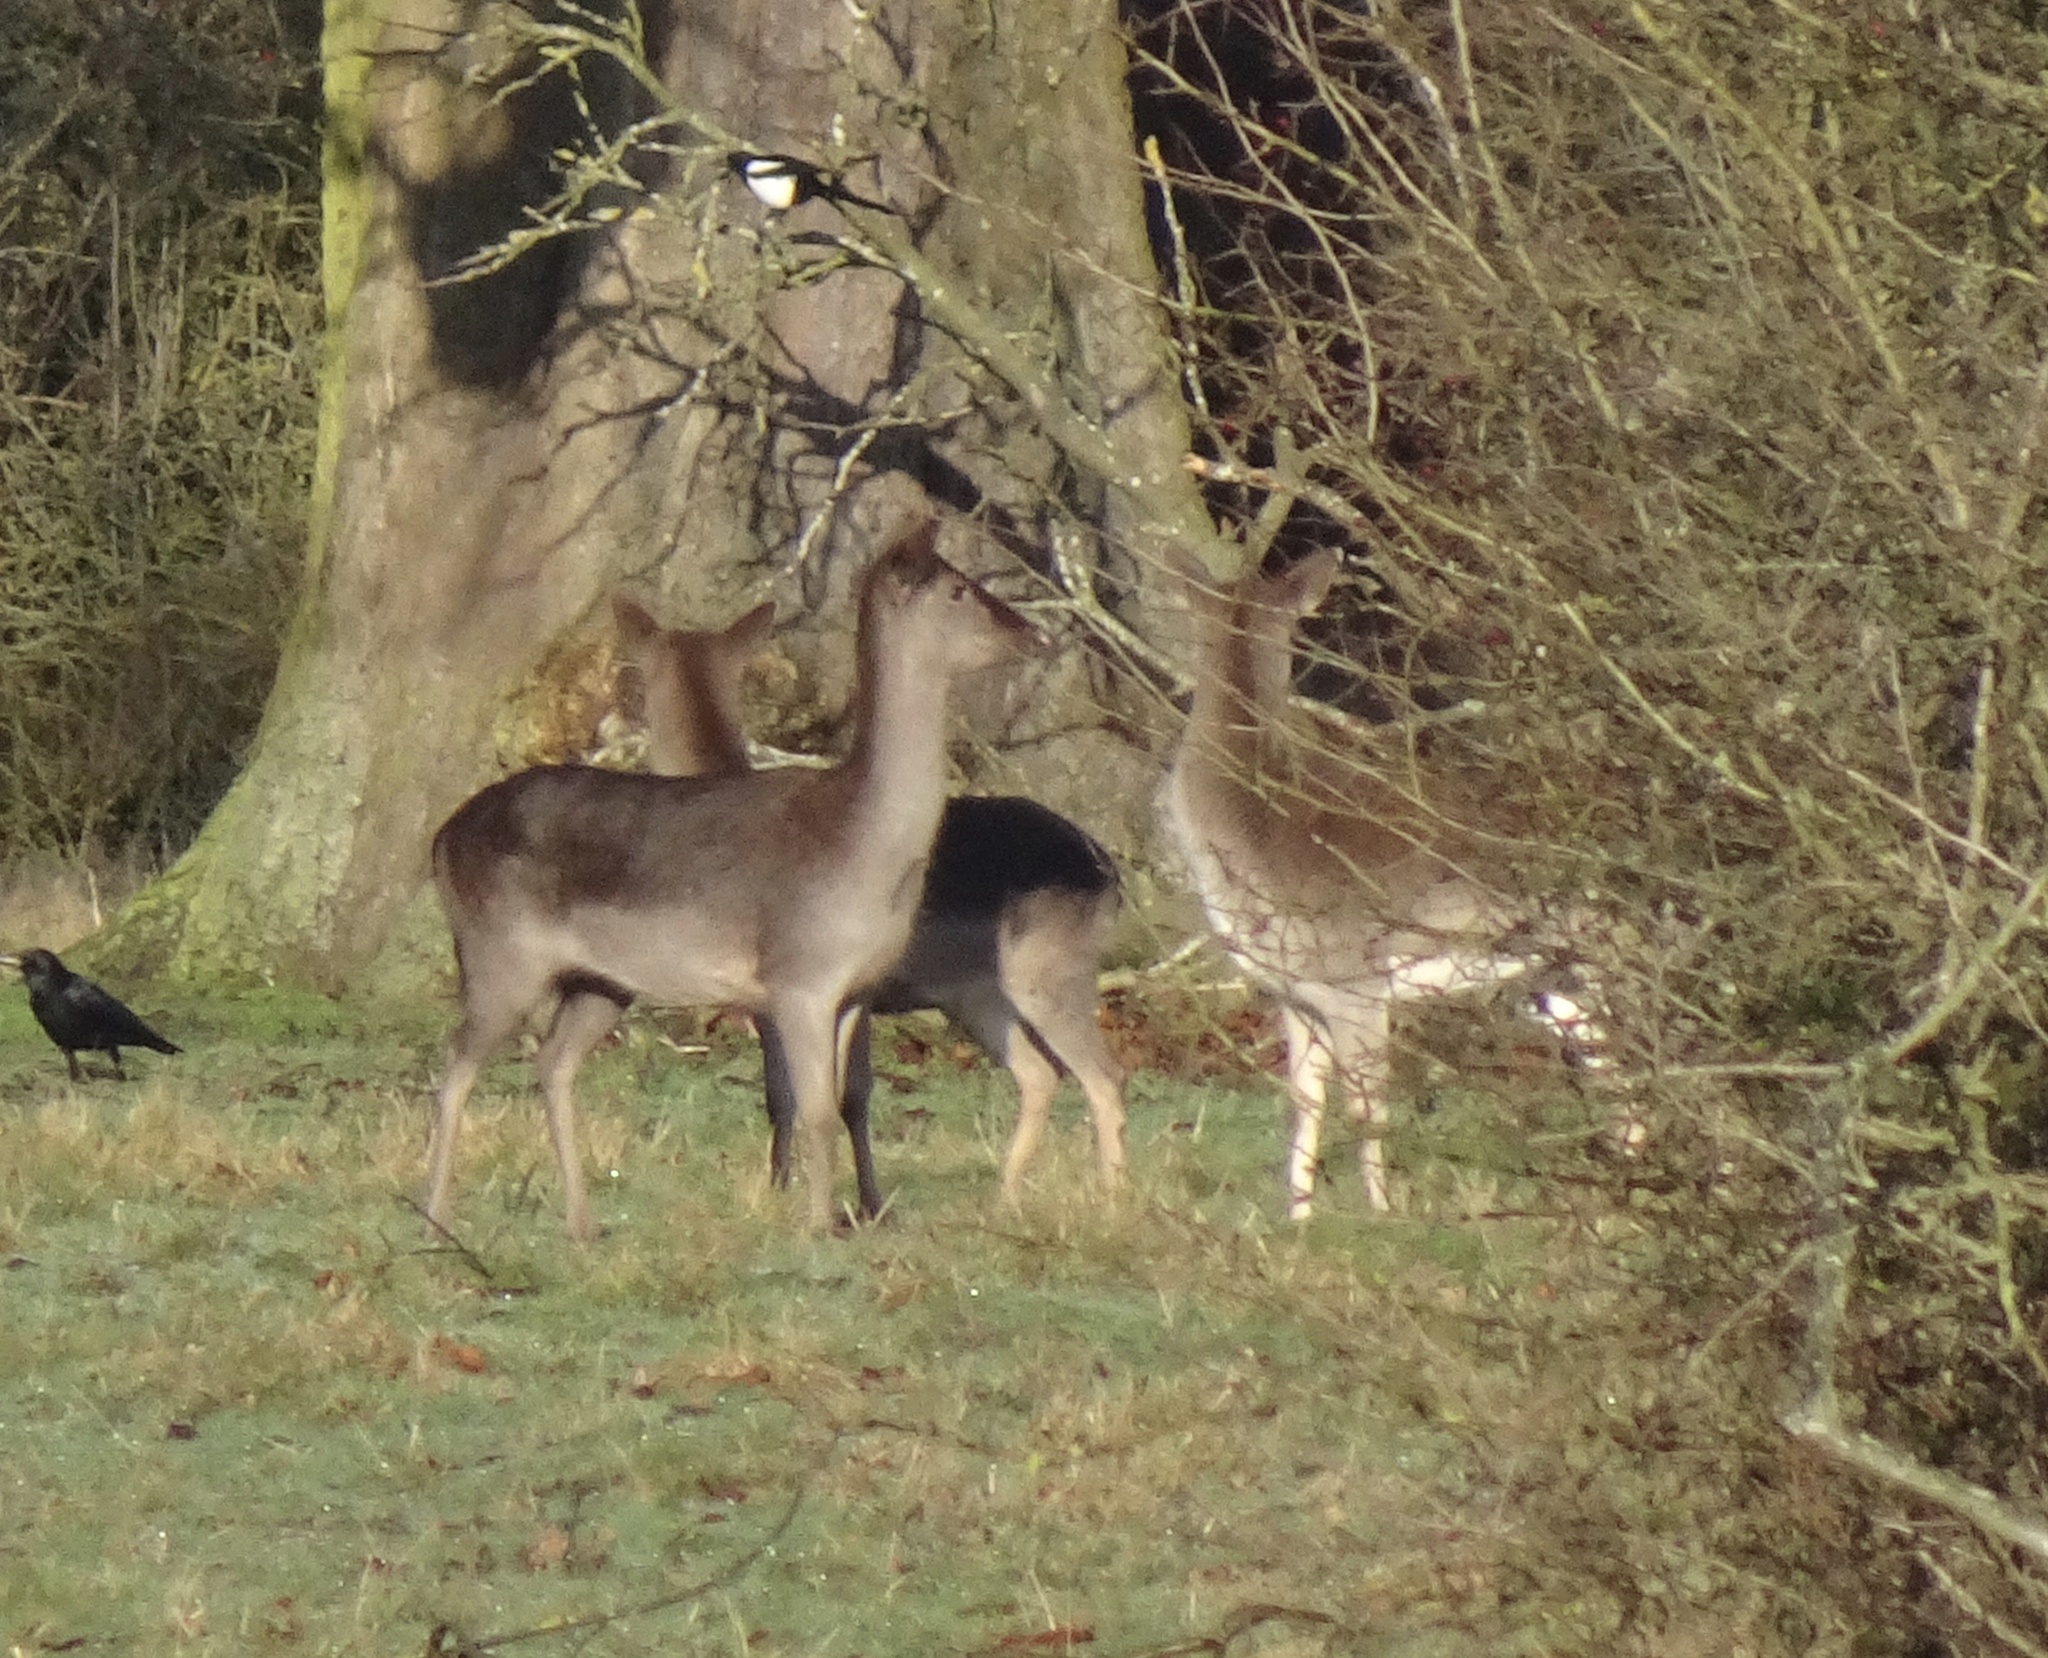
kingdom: Animalia
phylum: Chordata
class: Mammalia
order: Artiodactyla
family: Cervidae
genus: Dama
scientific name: Dama dama
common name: Fallow deer
